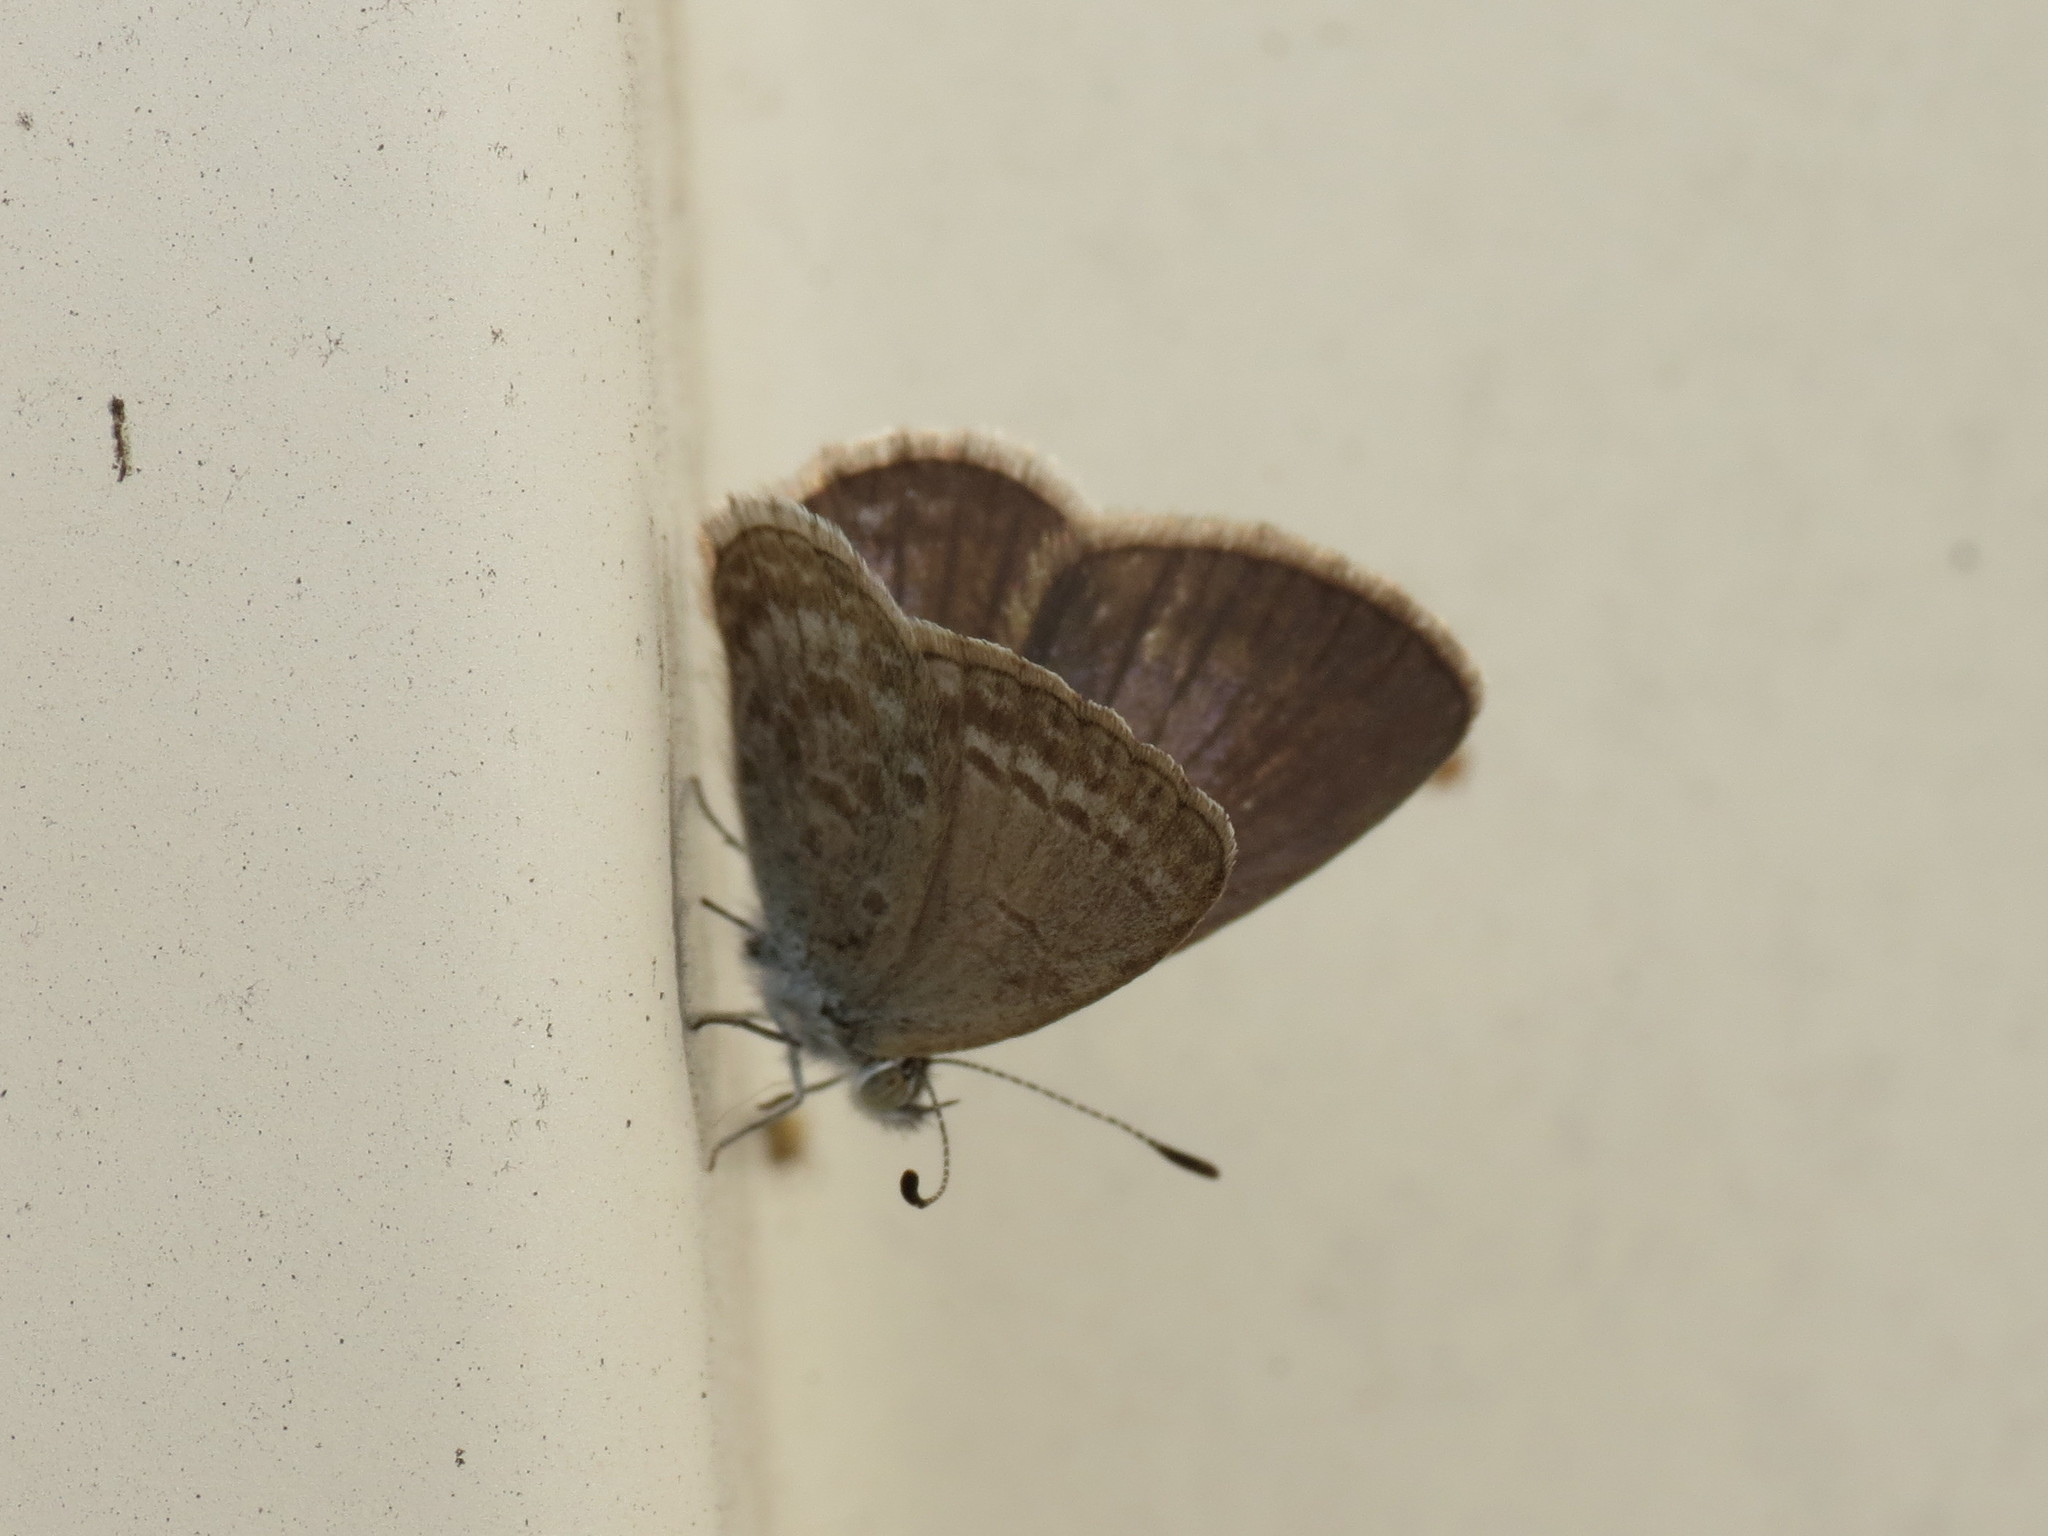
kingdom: Animalia
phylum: Arthropoda
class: Insecta
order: Lepidoptera
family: Lycaenidae
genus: Zizina
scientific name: Zizina labradus
